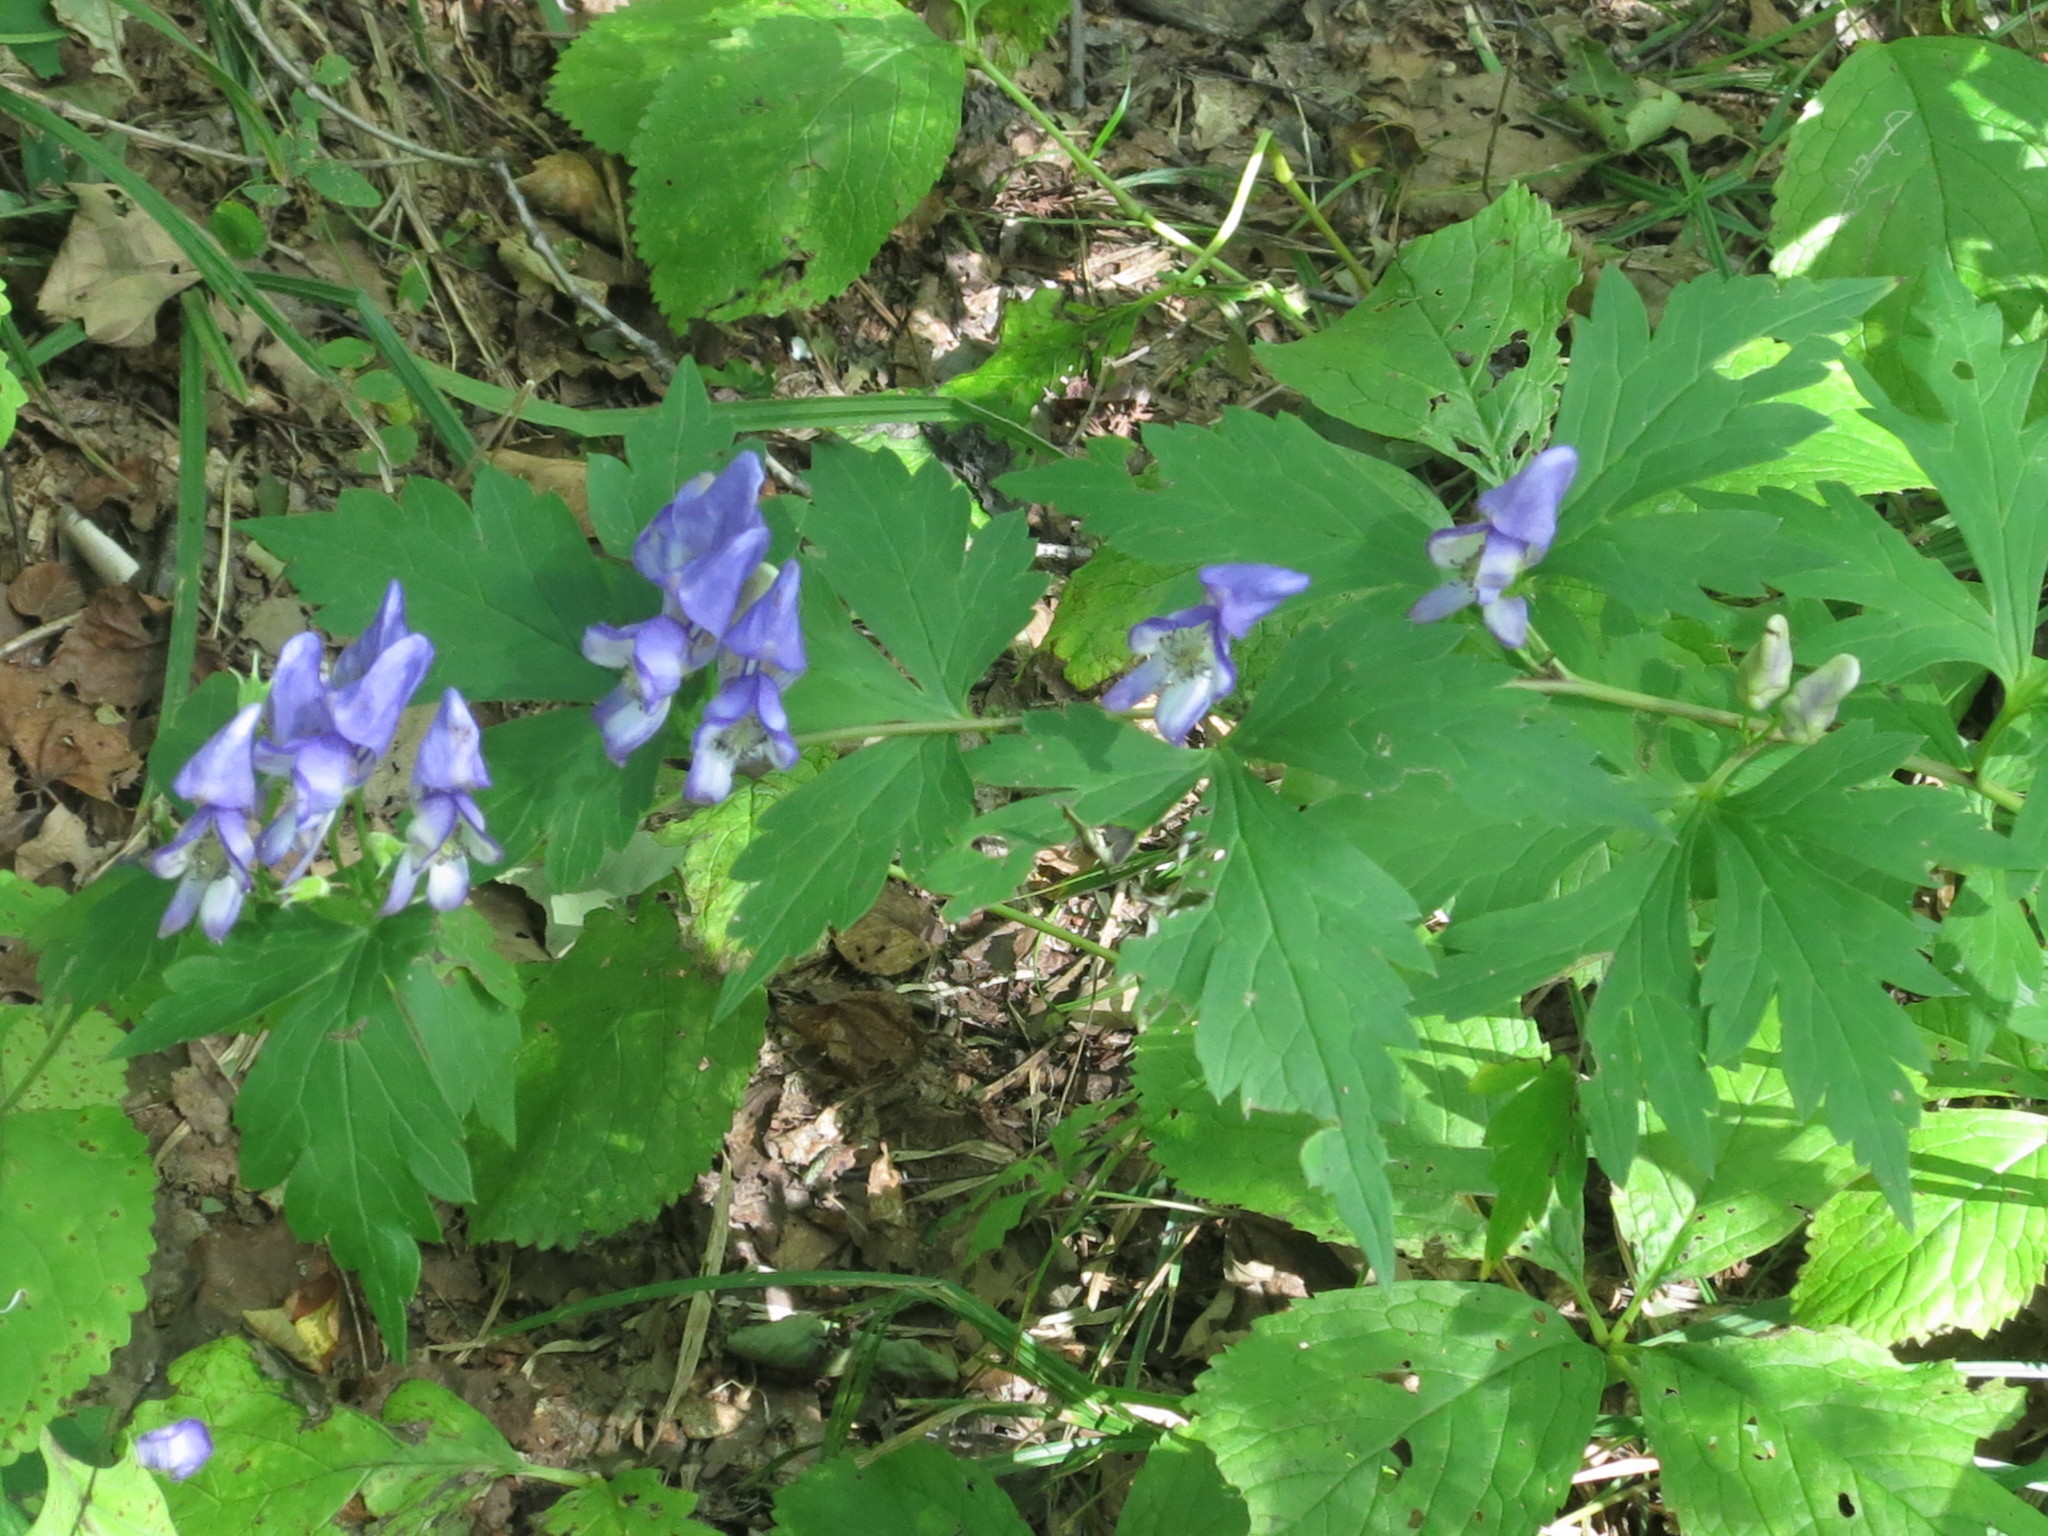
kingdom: Plantae
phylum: Tracheophyta
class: Magnoliopsida
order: Ranunculales
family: Ranunculaceae
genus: Aconitum
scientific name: Aconitum sczukinii
